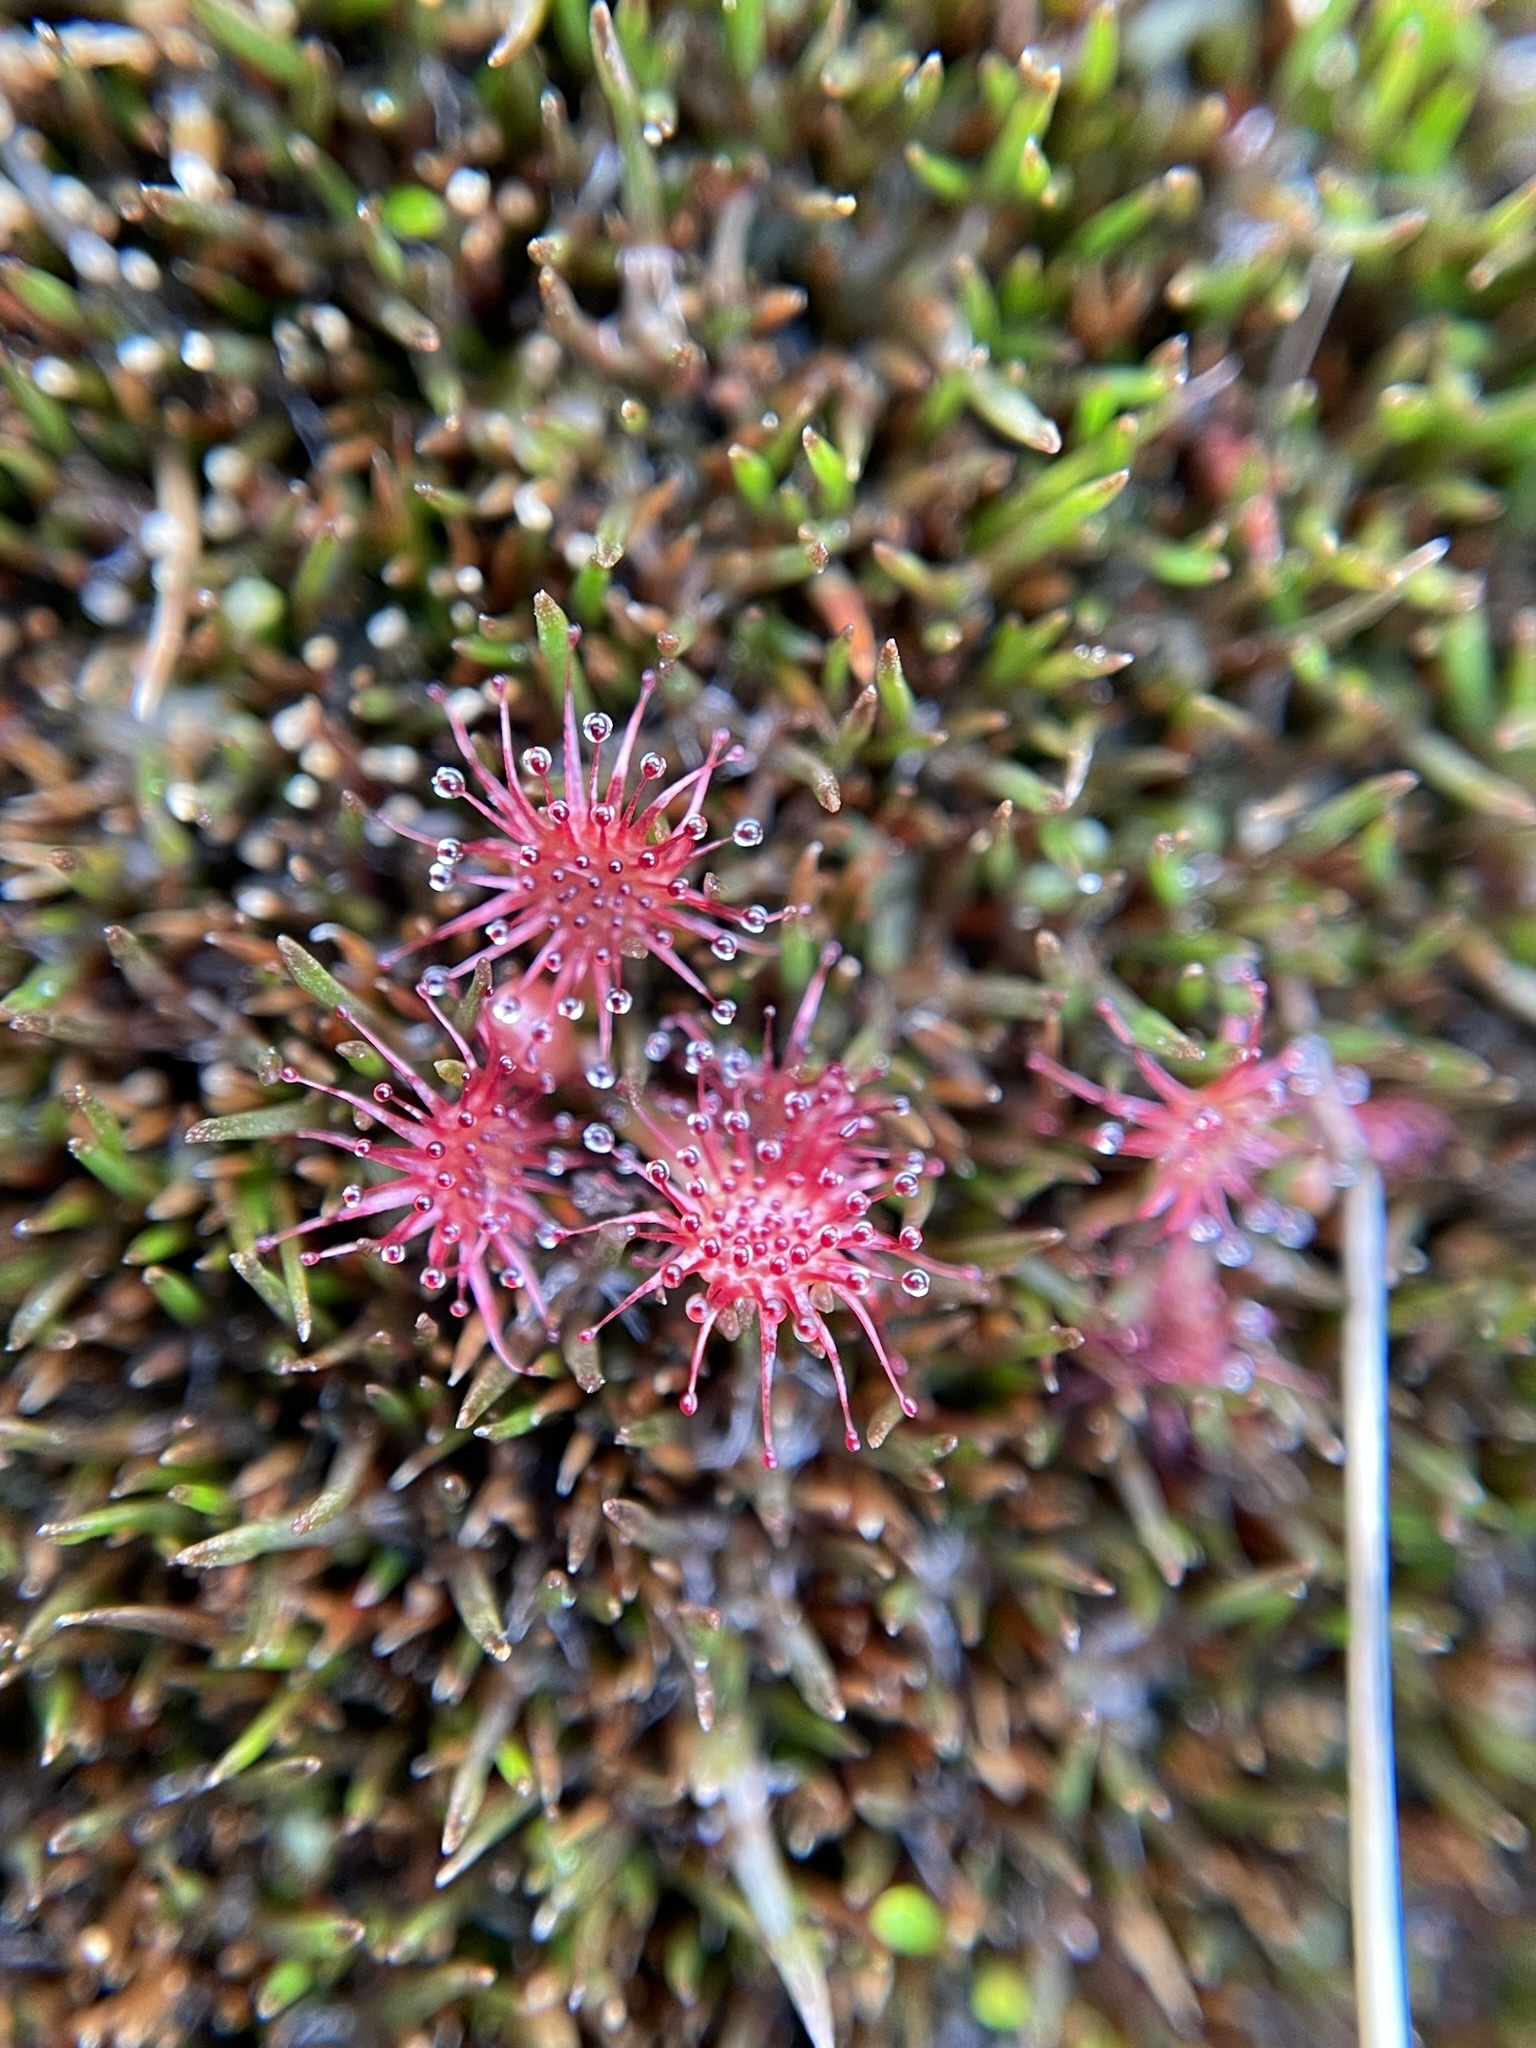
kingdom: Plantae
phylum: Tracheophyta
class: Magnoliopsida
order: Caryophyllales
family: Droseraceae
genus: Drosera
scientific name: Drosera spatulata
